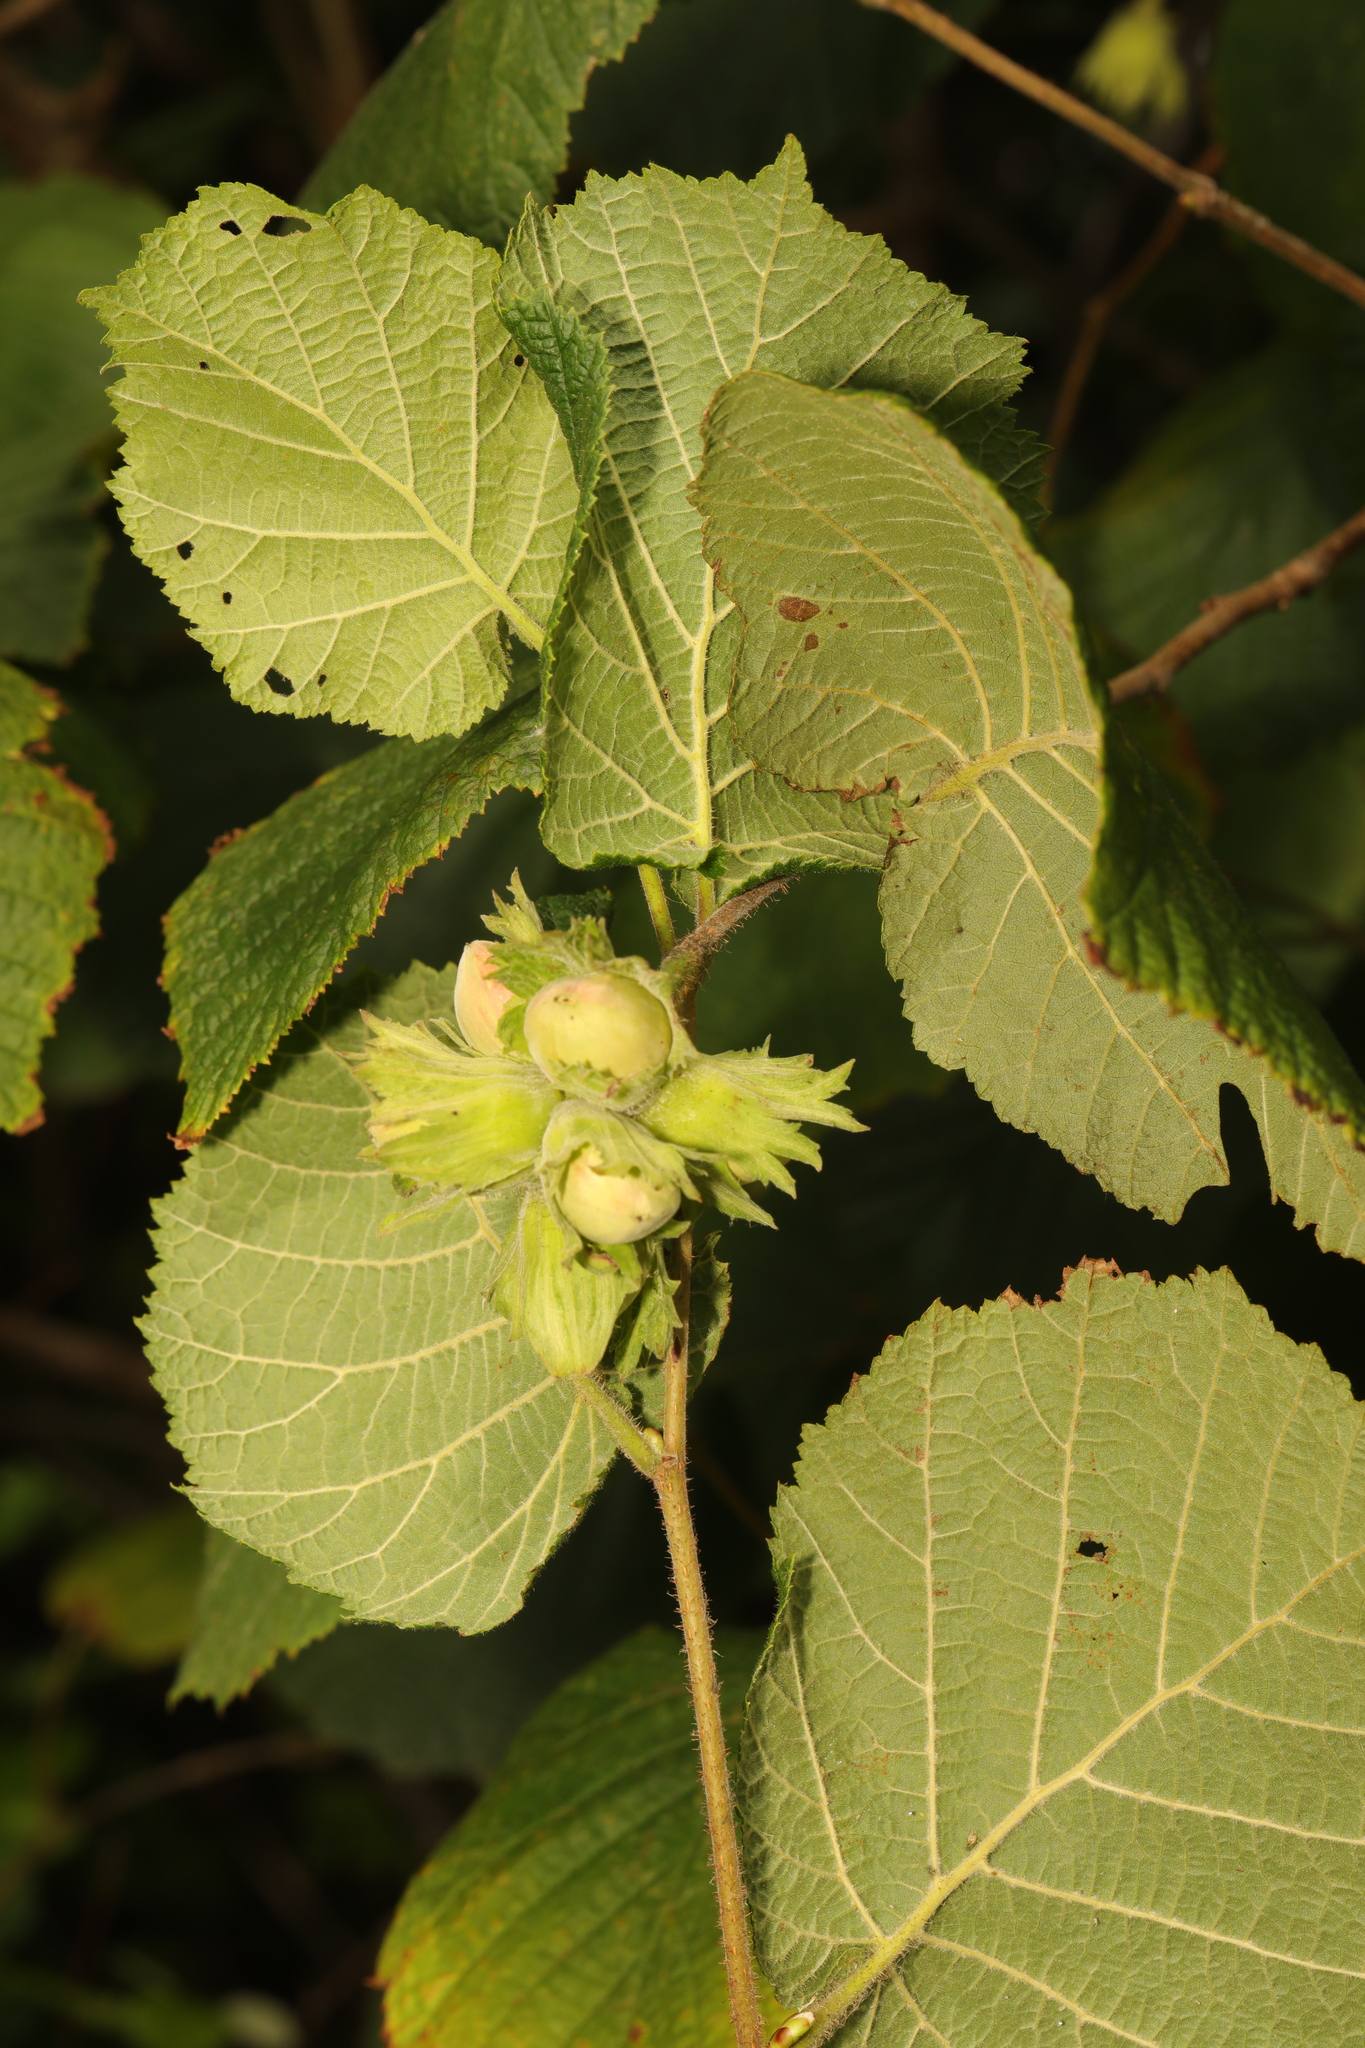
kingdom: Plantae
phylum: Tracheophyta
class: Magnoliopsida
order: Fagales
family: Betulaceae
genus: Corylus
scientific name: Corylus avellana
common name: European hazel
